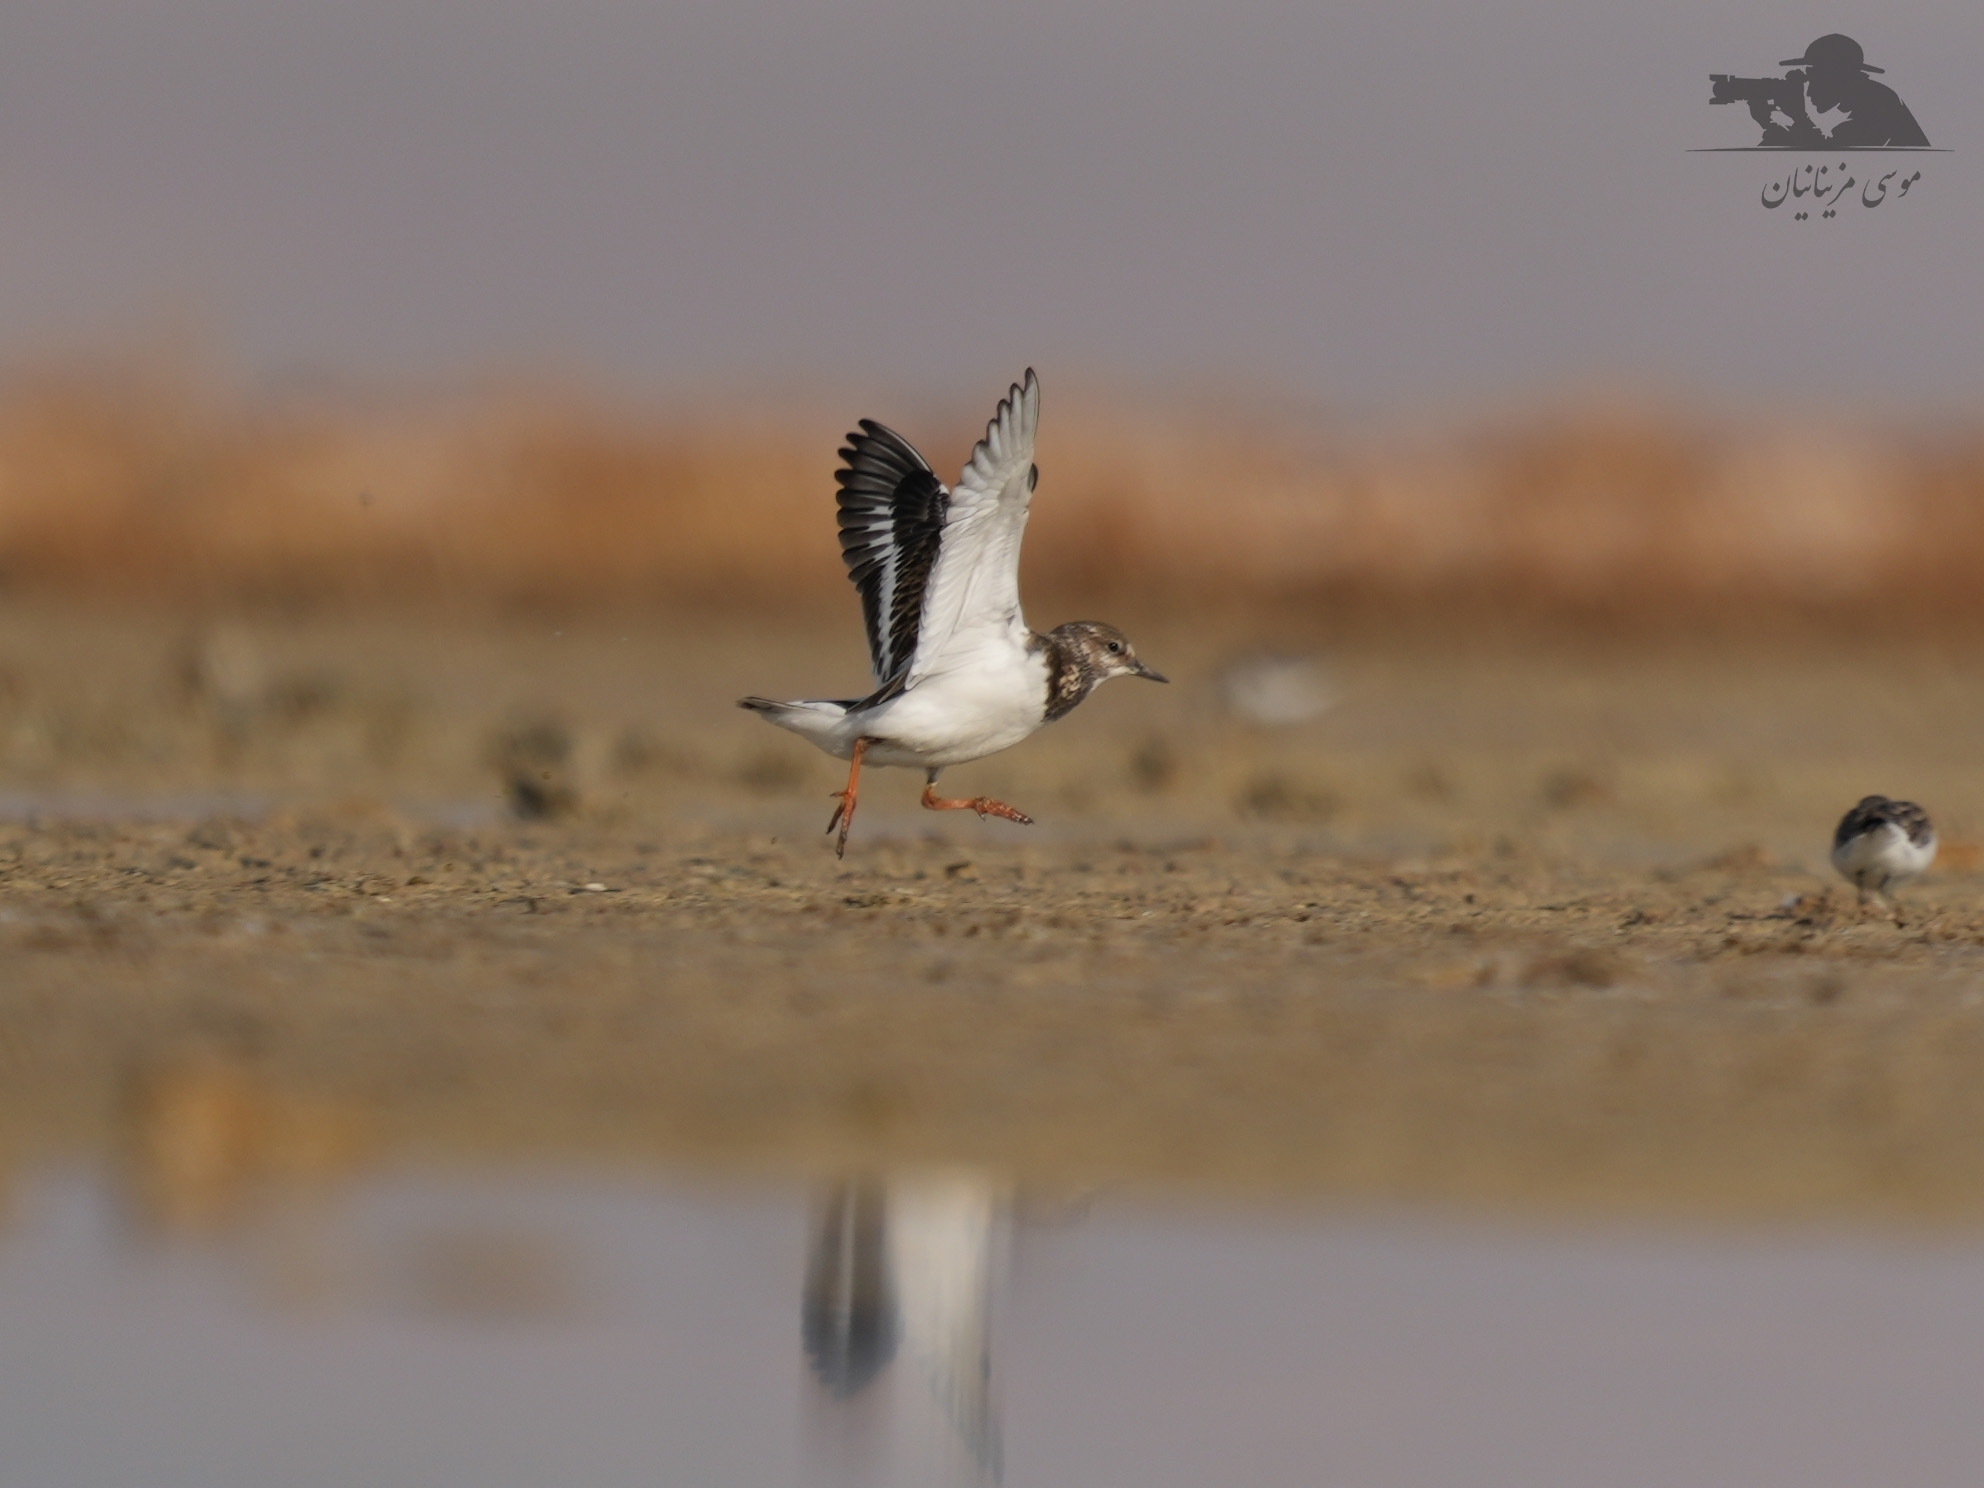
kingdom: Animalia
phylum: Chordata
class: Aves
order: Charadriiformes
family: Scolopacidae
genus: Arenaria
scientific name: Arenaria interpres
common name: Ruddy turnstone
